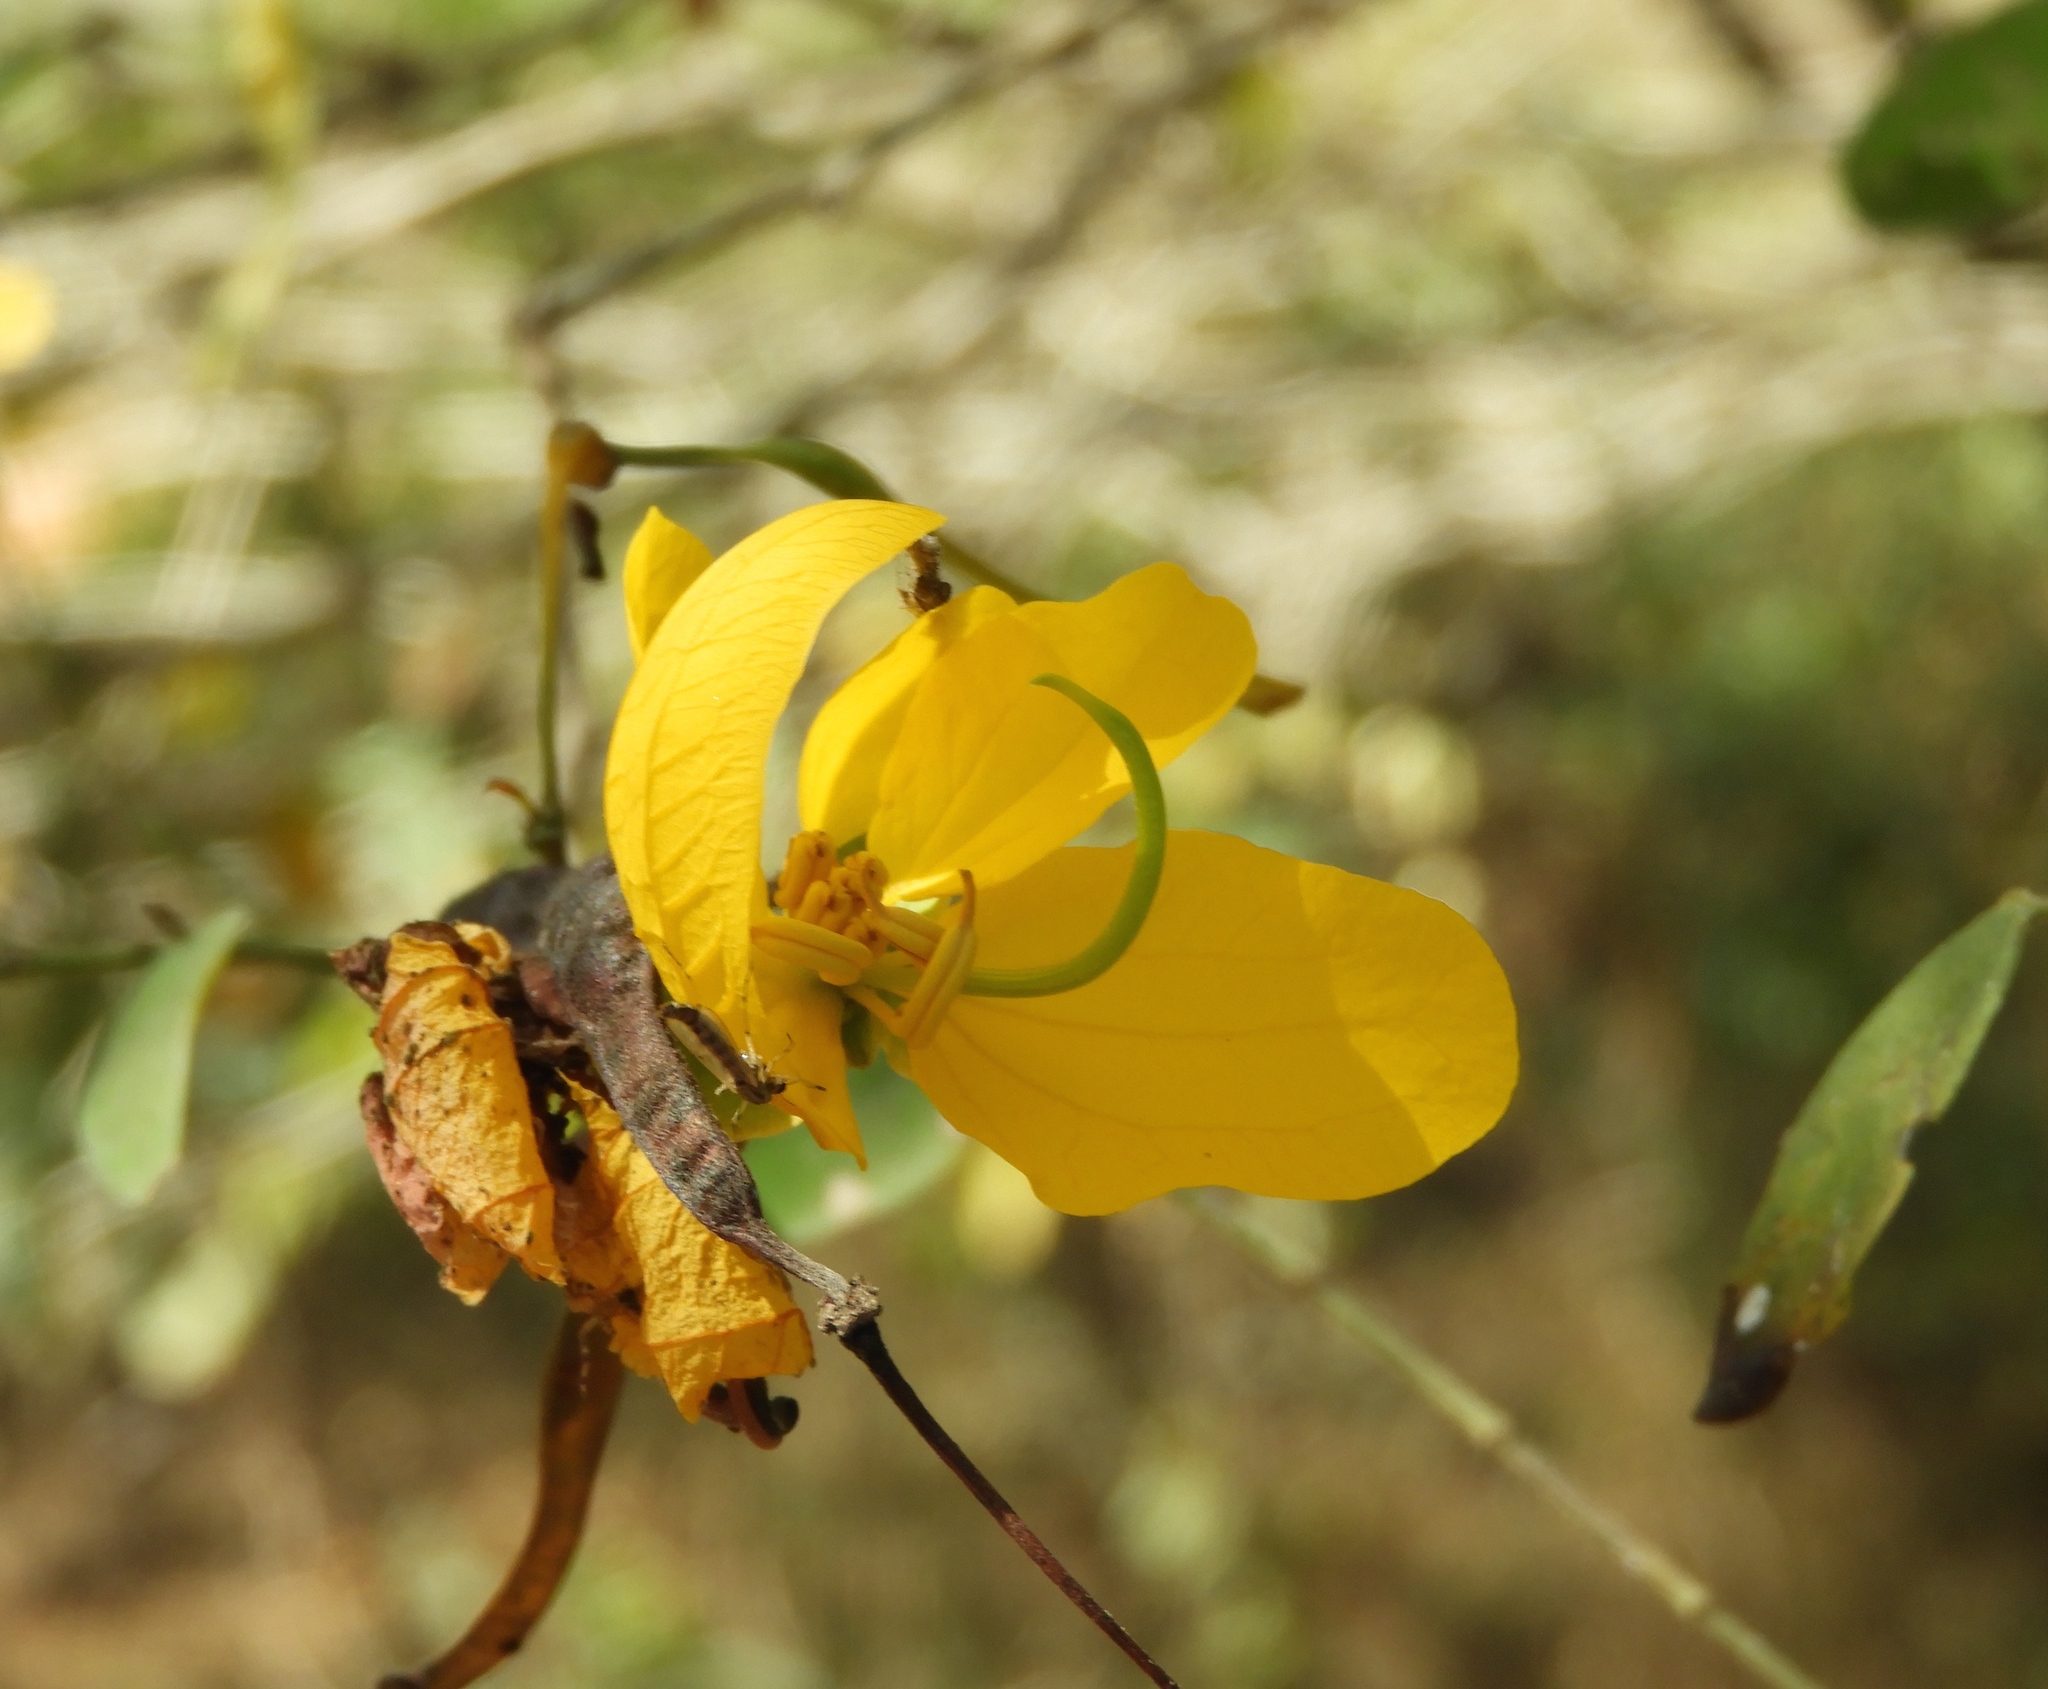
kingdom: Plantae
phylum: Tracheophyta
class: Magnoliopsida
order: Fabales
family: Fabaceae
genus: Senna
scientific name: Senna pallida
